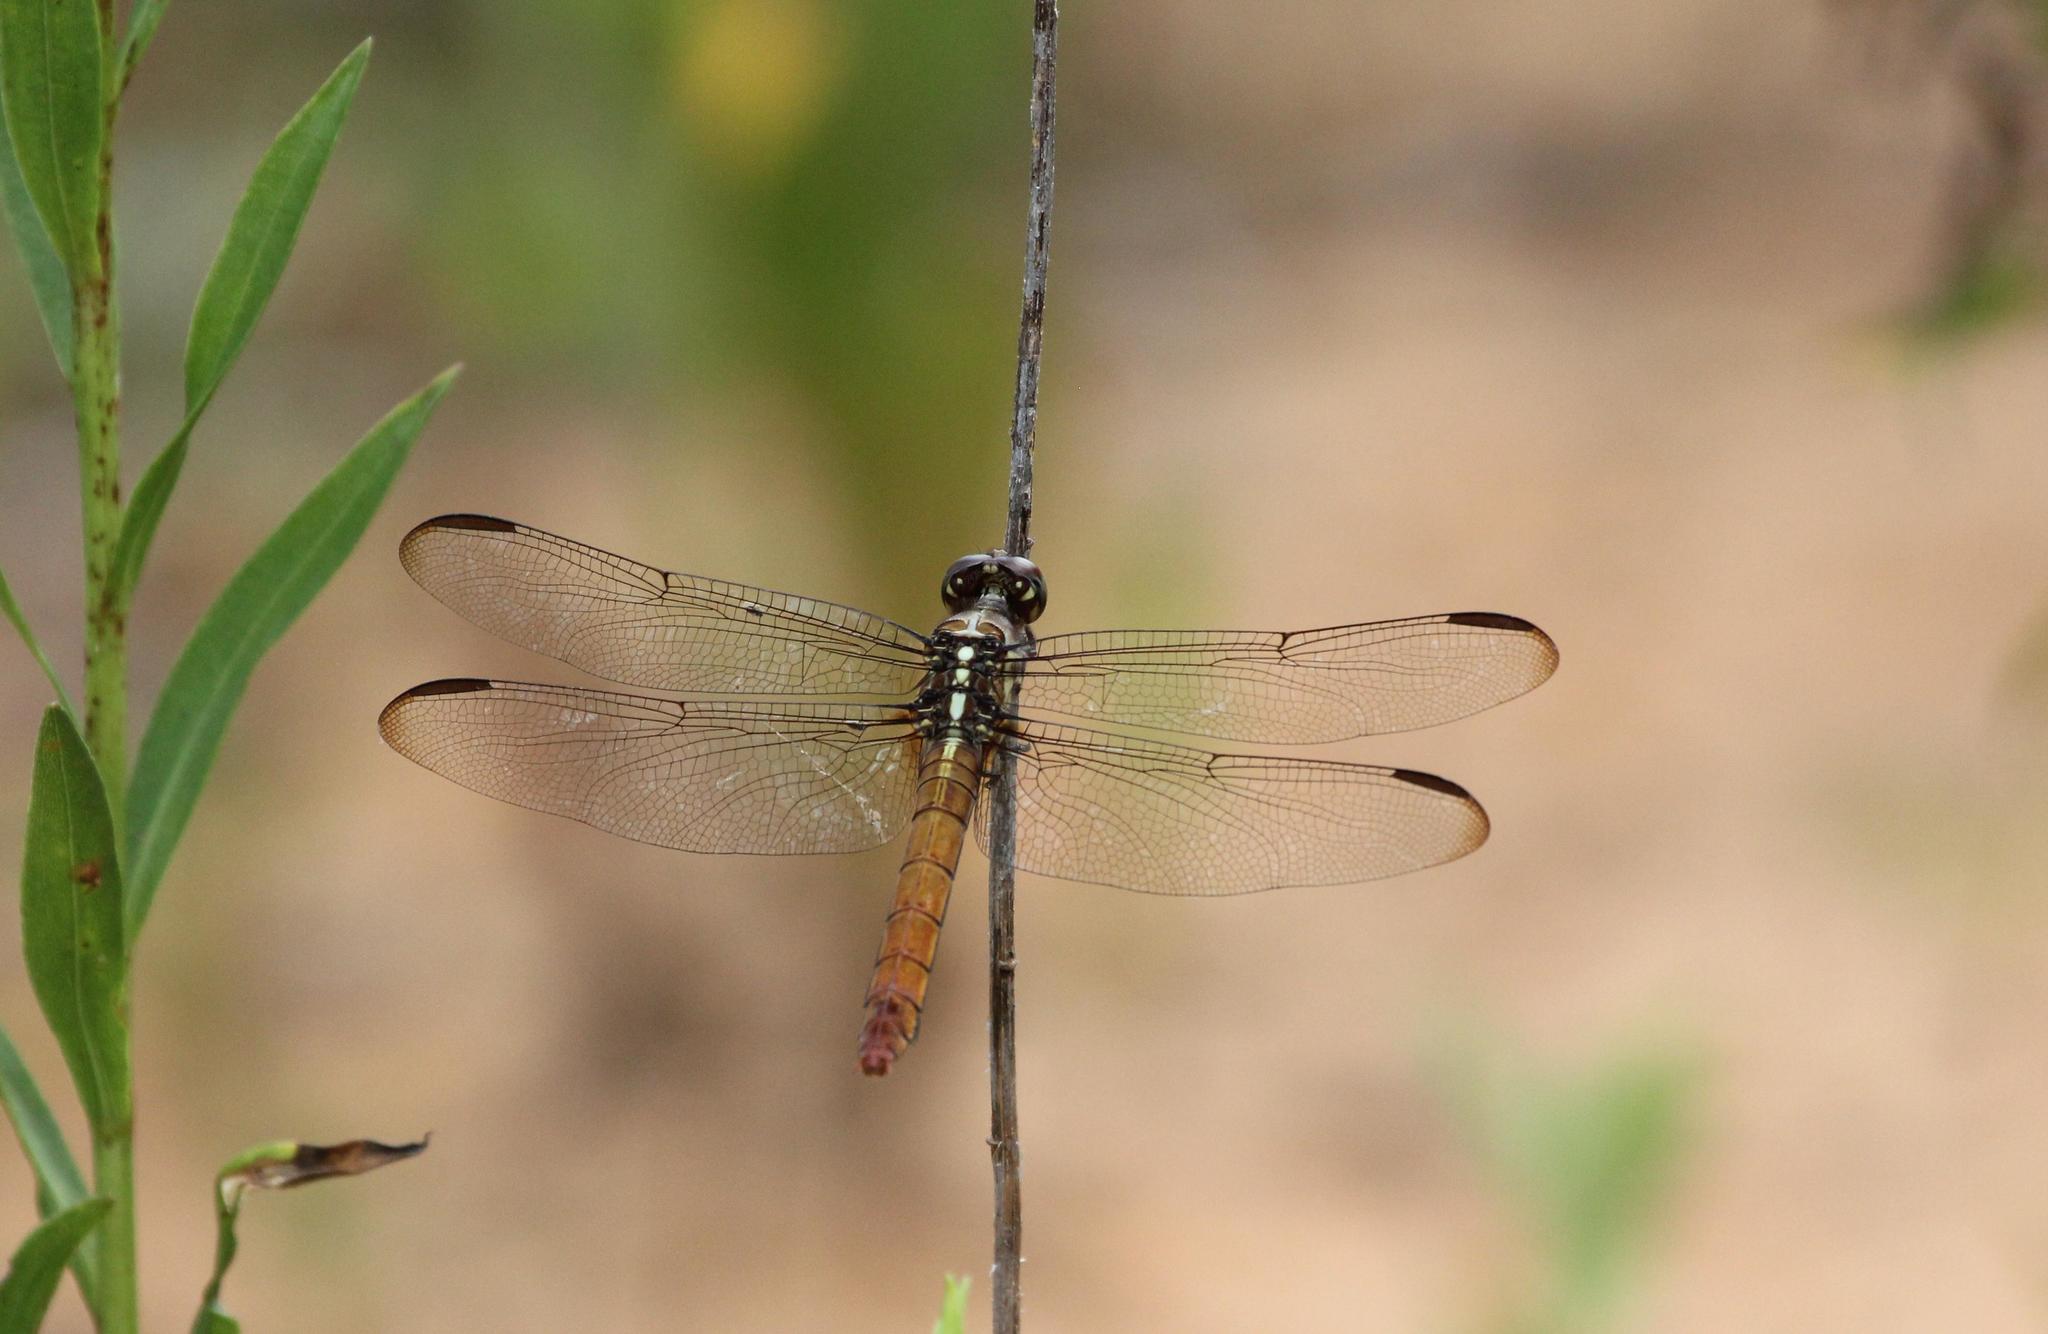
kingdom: Animalia
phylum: Arthropoda
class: Insecta
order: Odonata
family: Libellulidae
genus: Orthemis
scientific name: Orthemis ferruginea
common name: Roseate skimmer
